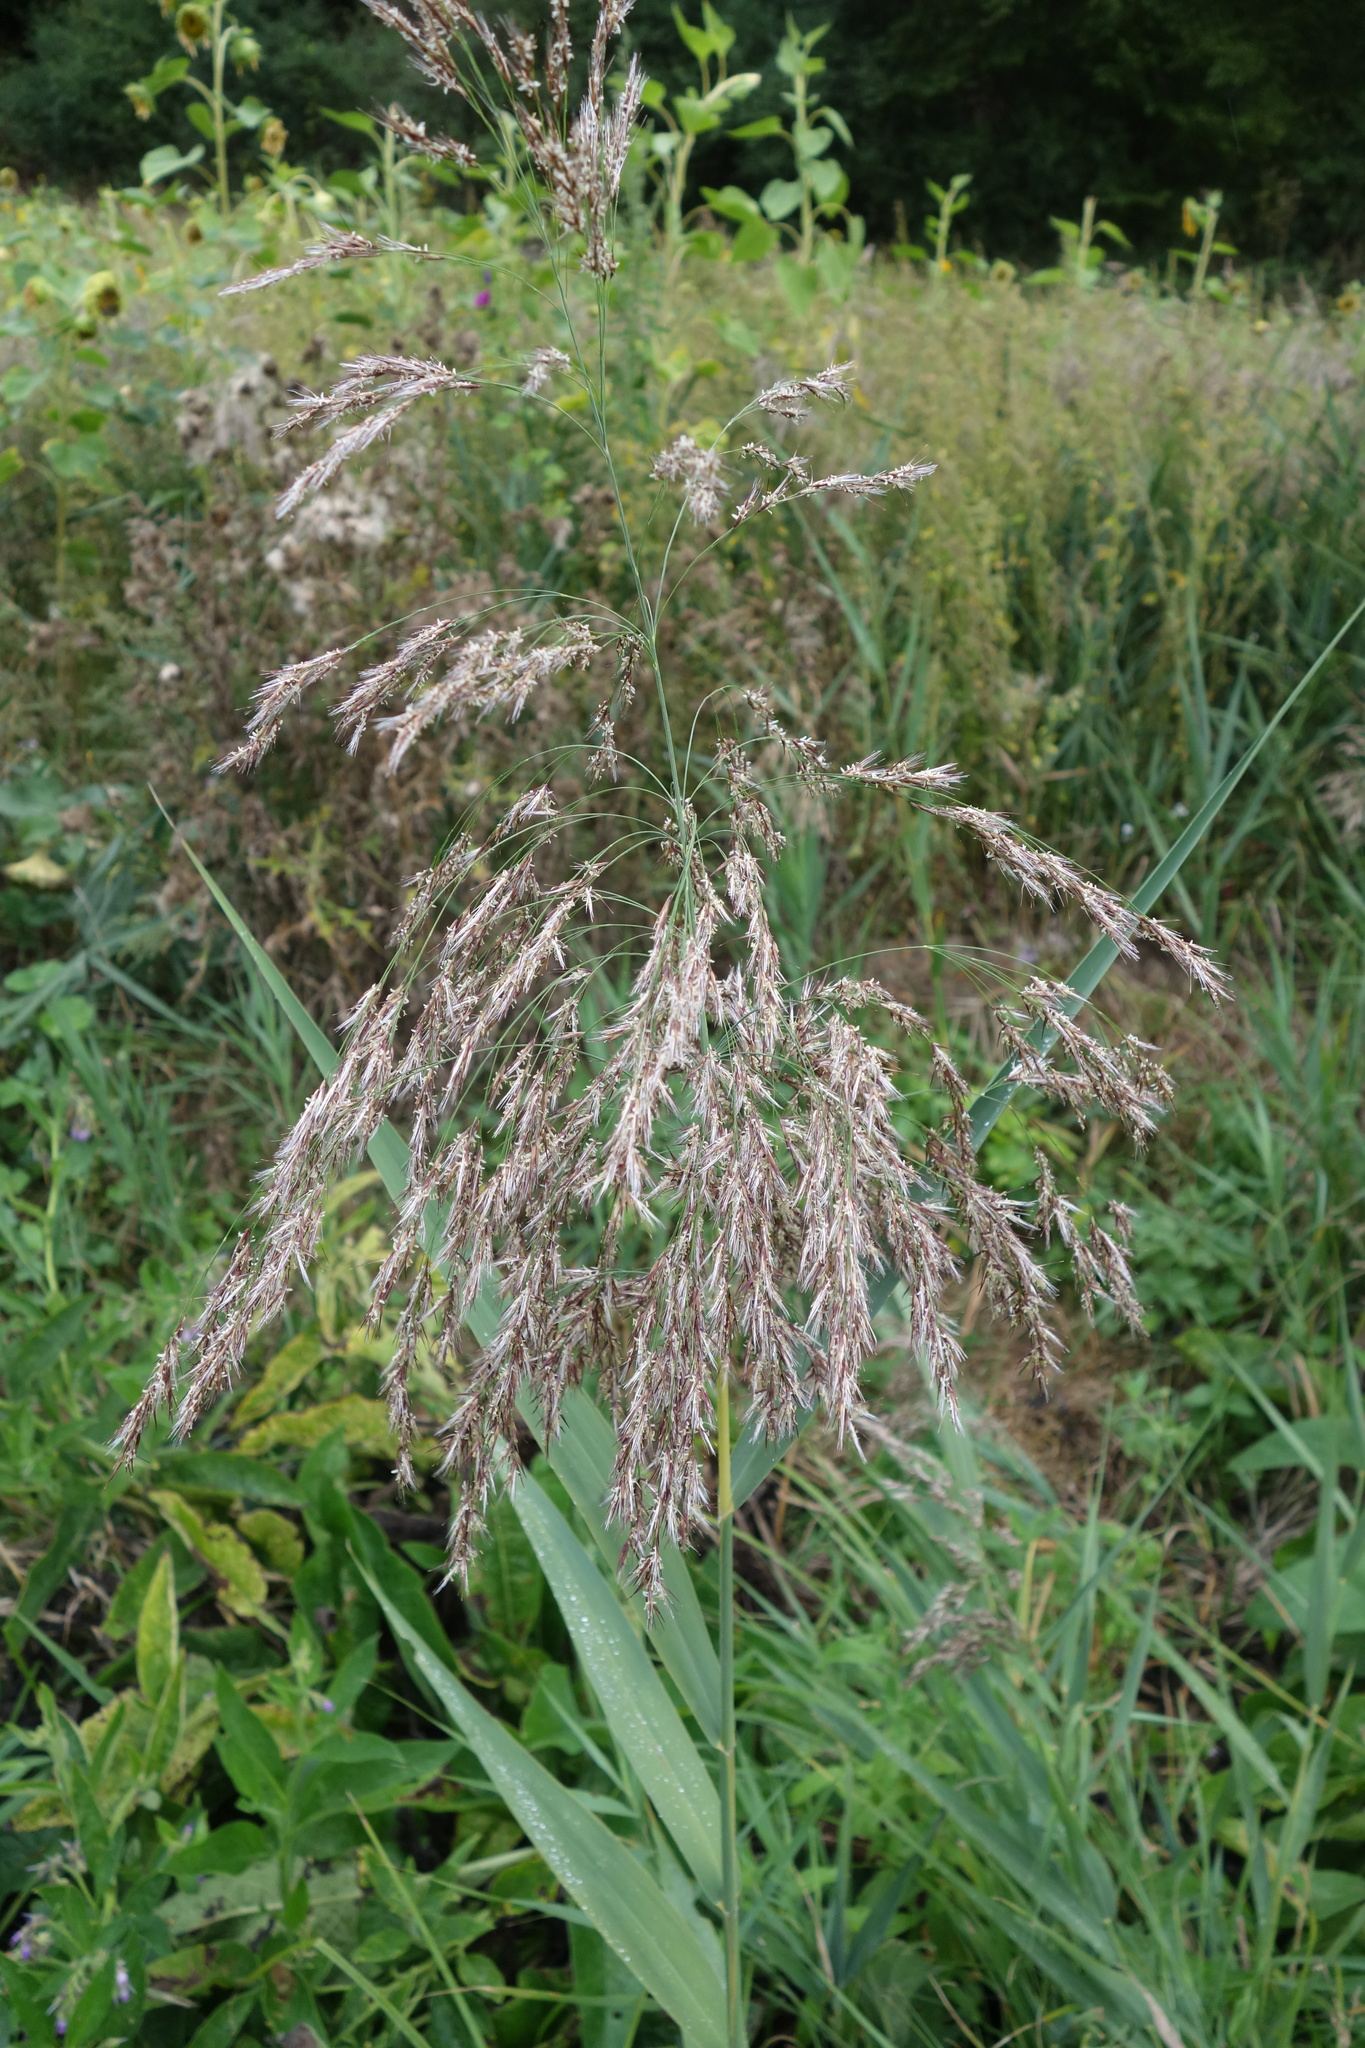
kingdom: Plantae
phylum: Tracheophyta
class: Liliopsida
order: Poales
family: Poaceae
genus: Phragmites
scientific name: Phragmites australis
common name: Common reed
